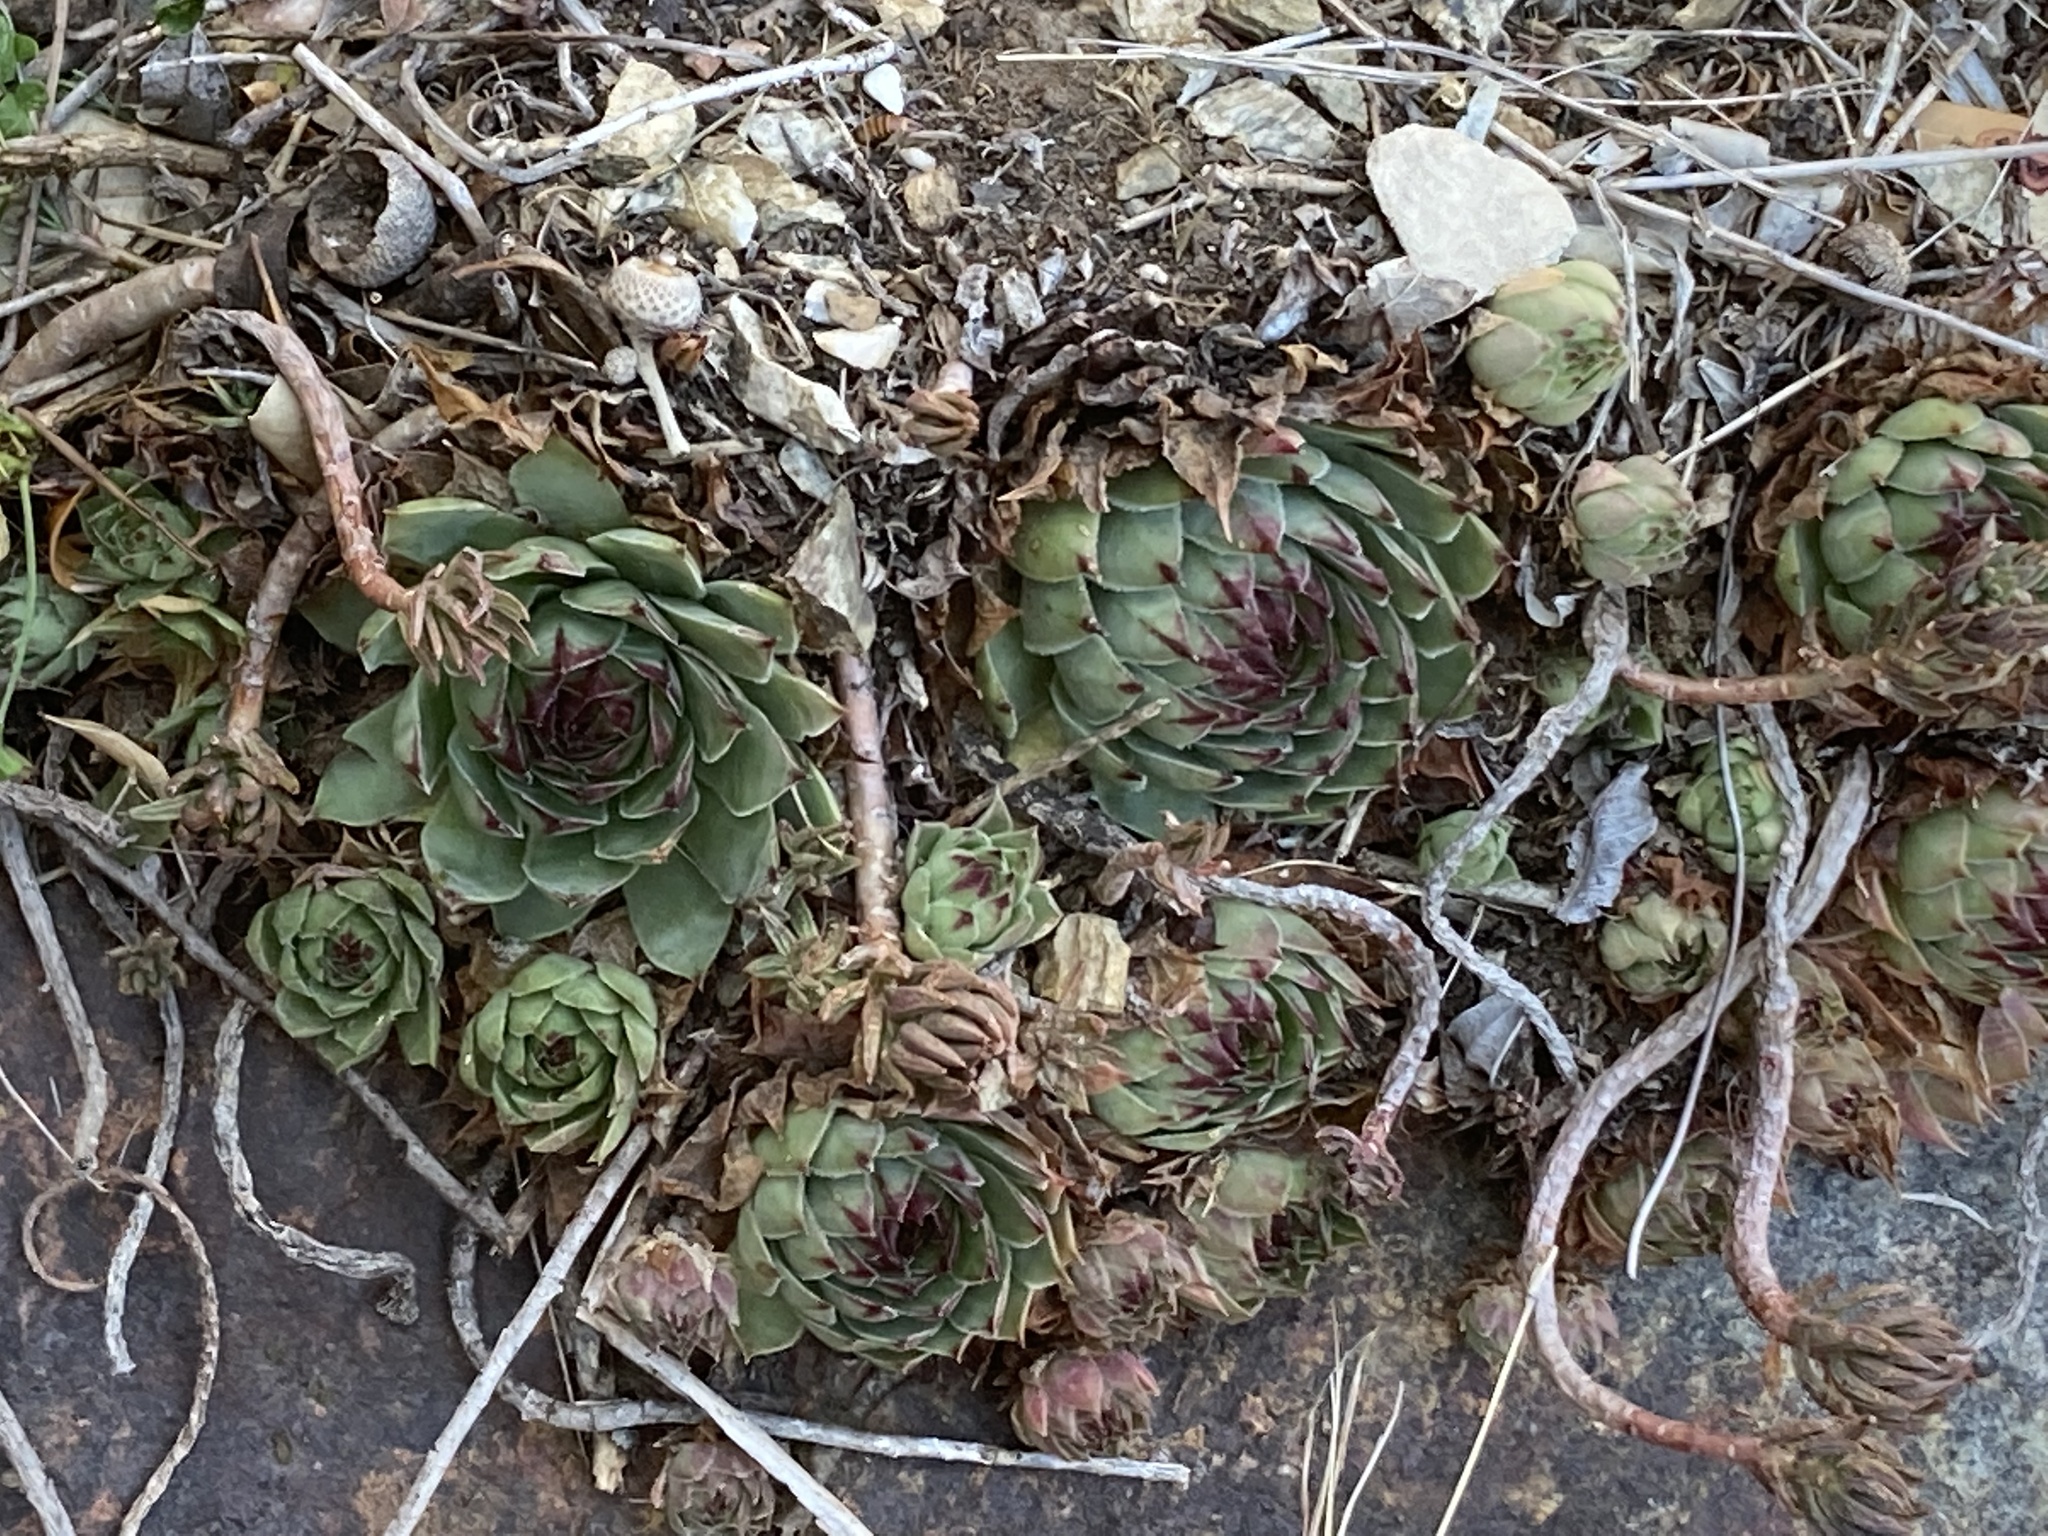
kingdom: Plantae
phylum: Tracheophyta
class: Magnoliopsida
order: Saxifragales
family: Crassulaceae
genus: Sempervivum
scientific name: Sempervivum tectorum
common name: House-leek
